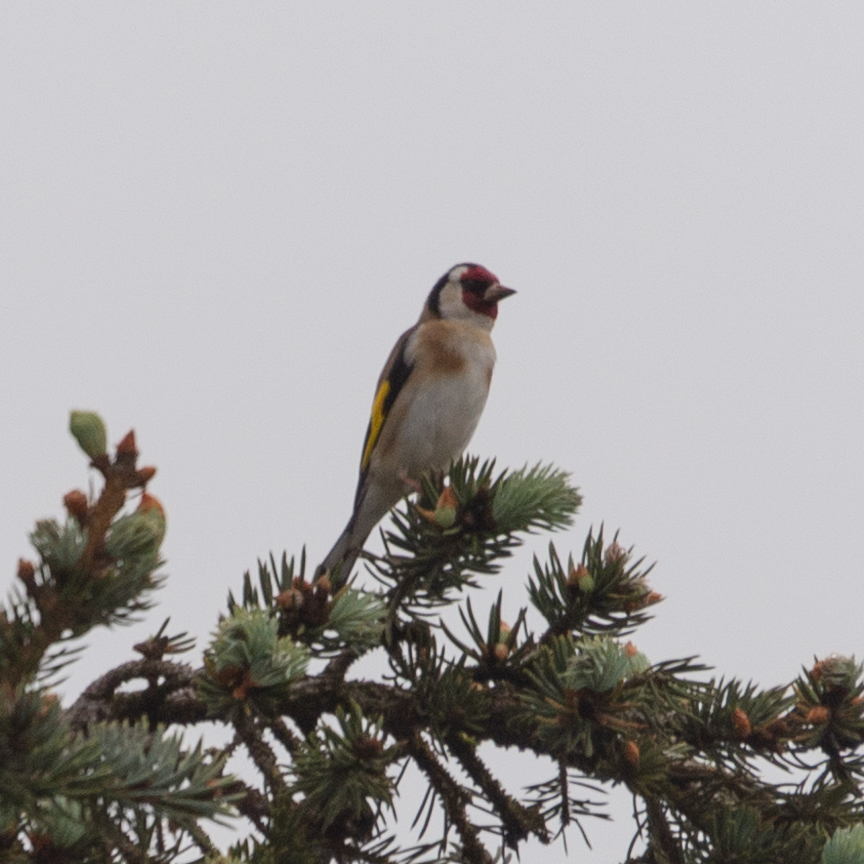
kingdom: Animalia
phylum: Chordata
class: Aves
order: Passeriformes
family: Fringillidae
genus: Carduelis
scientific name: Carduelis carduelis
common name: European goldfinch
